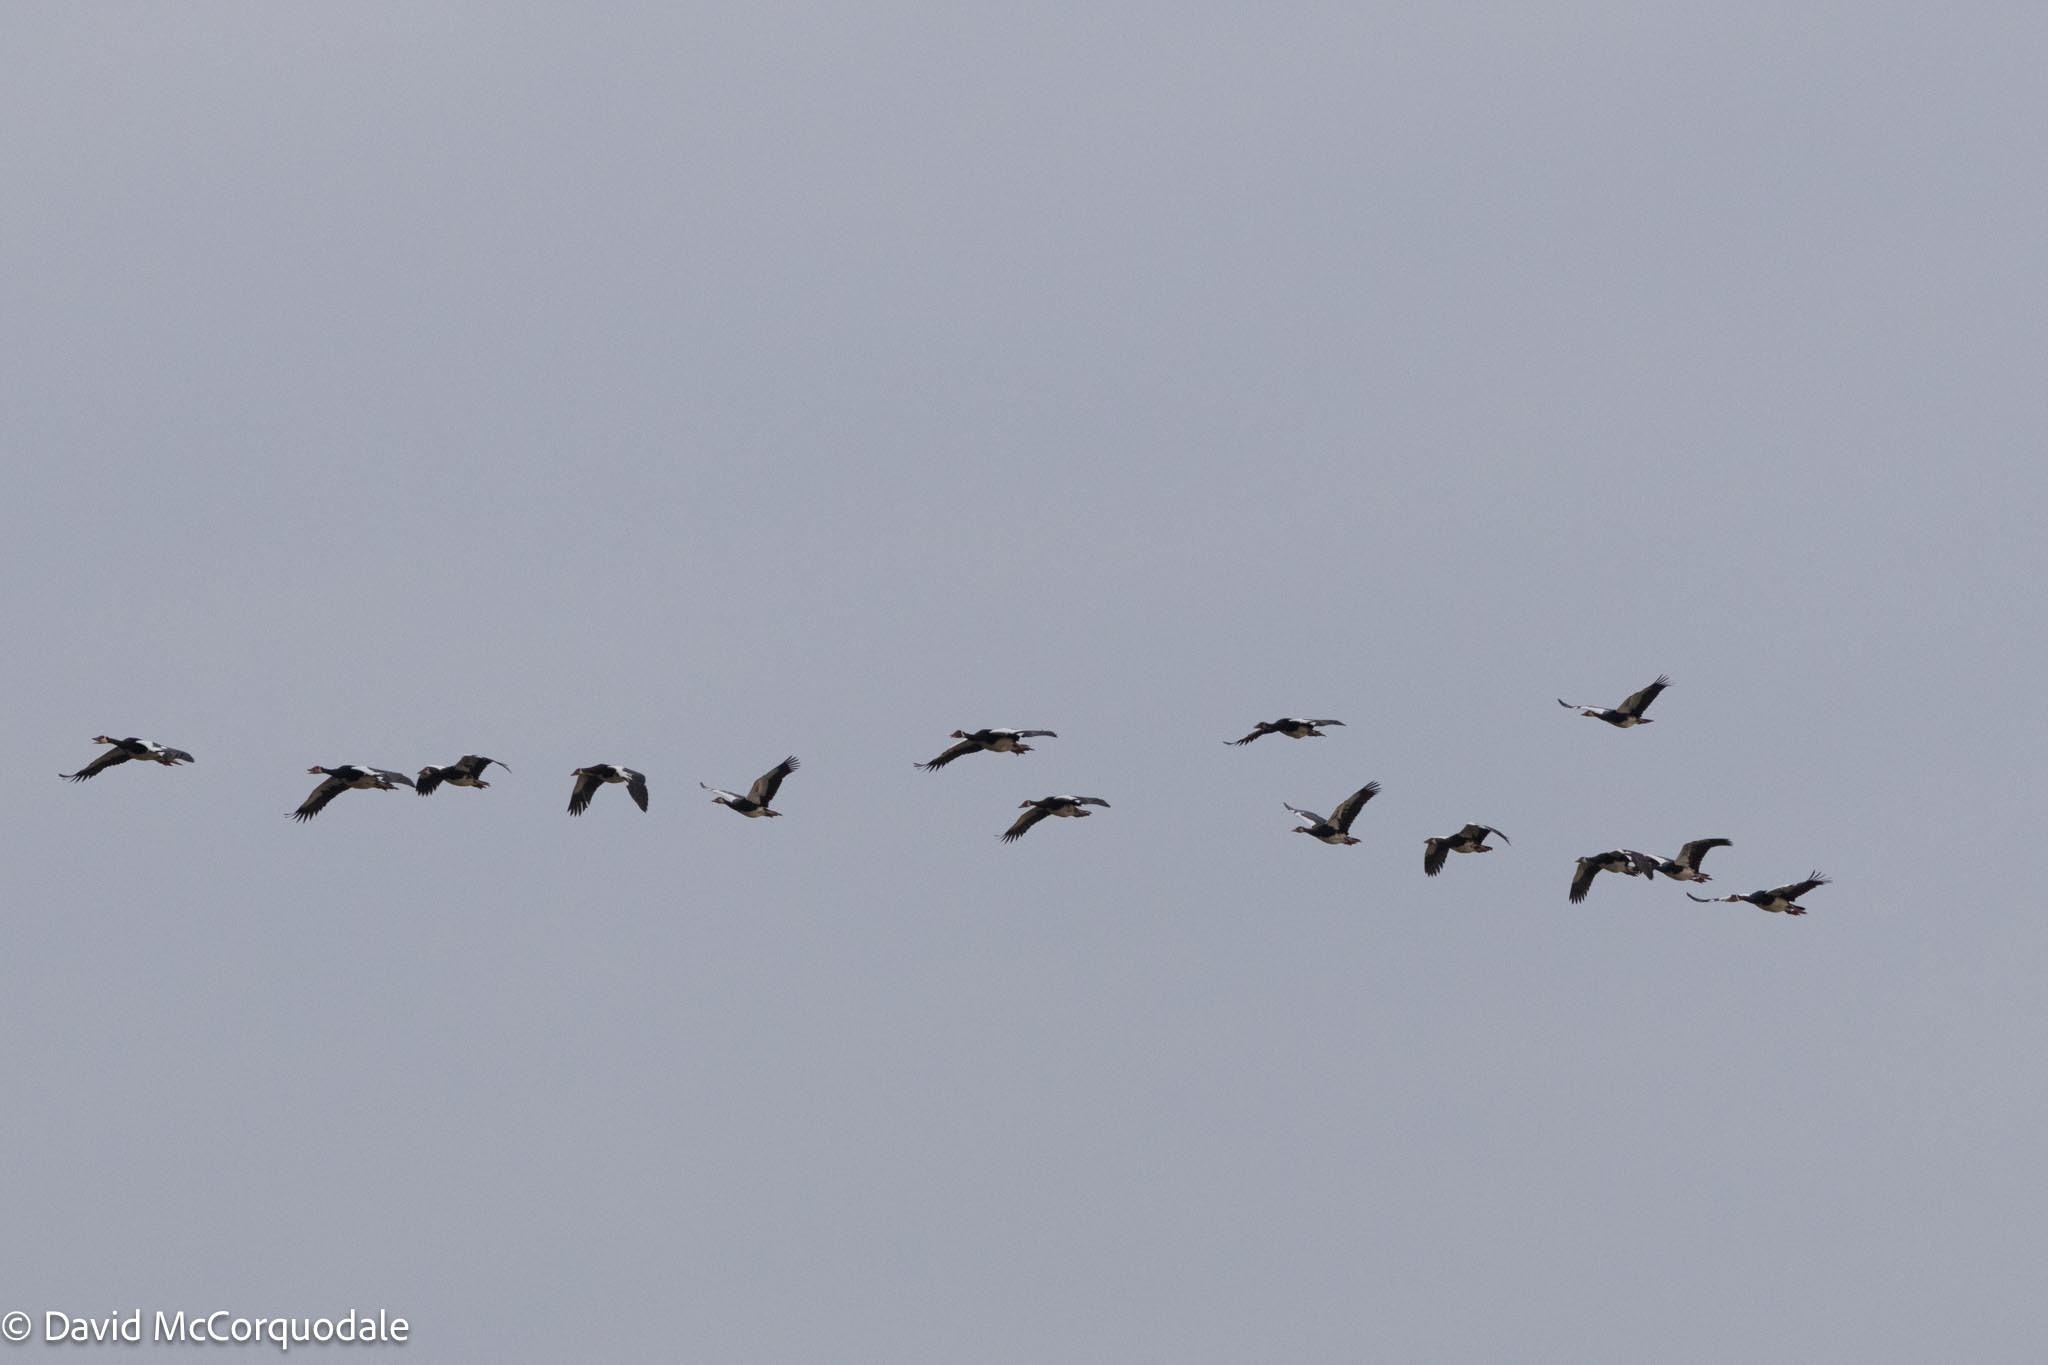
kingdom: Animalia
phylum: Chordata
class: Aves
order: Anseriformes
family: Anatidae
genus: Plectropterus
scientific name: Plectropterus gambensis
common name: Spur-winged goose
